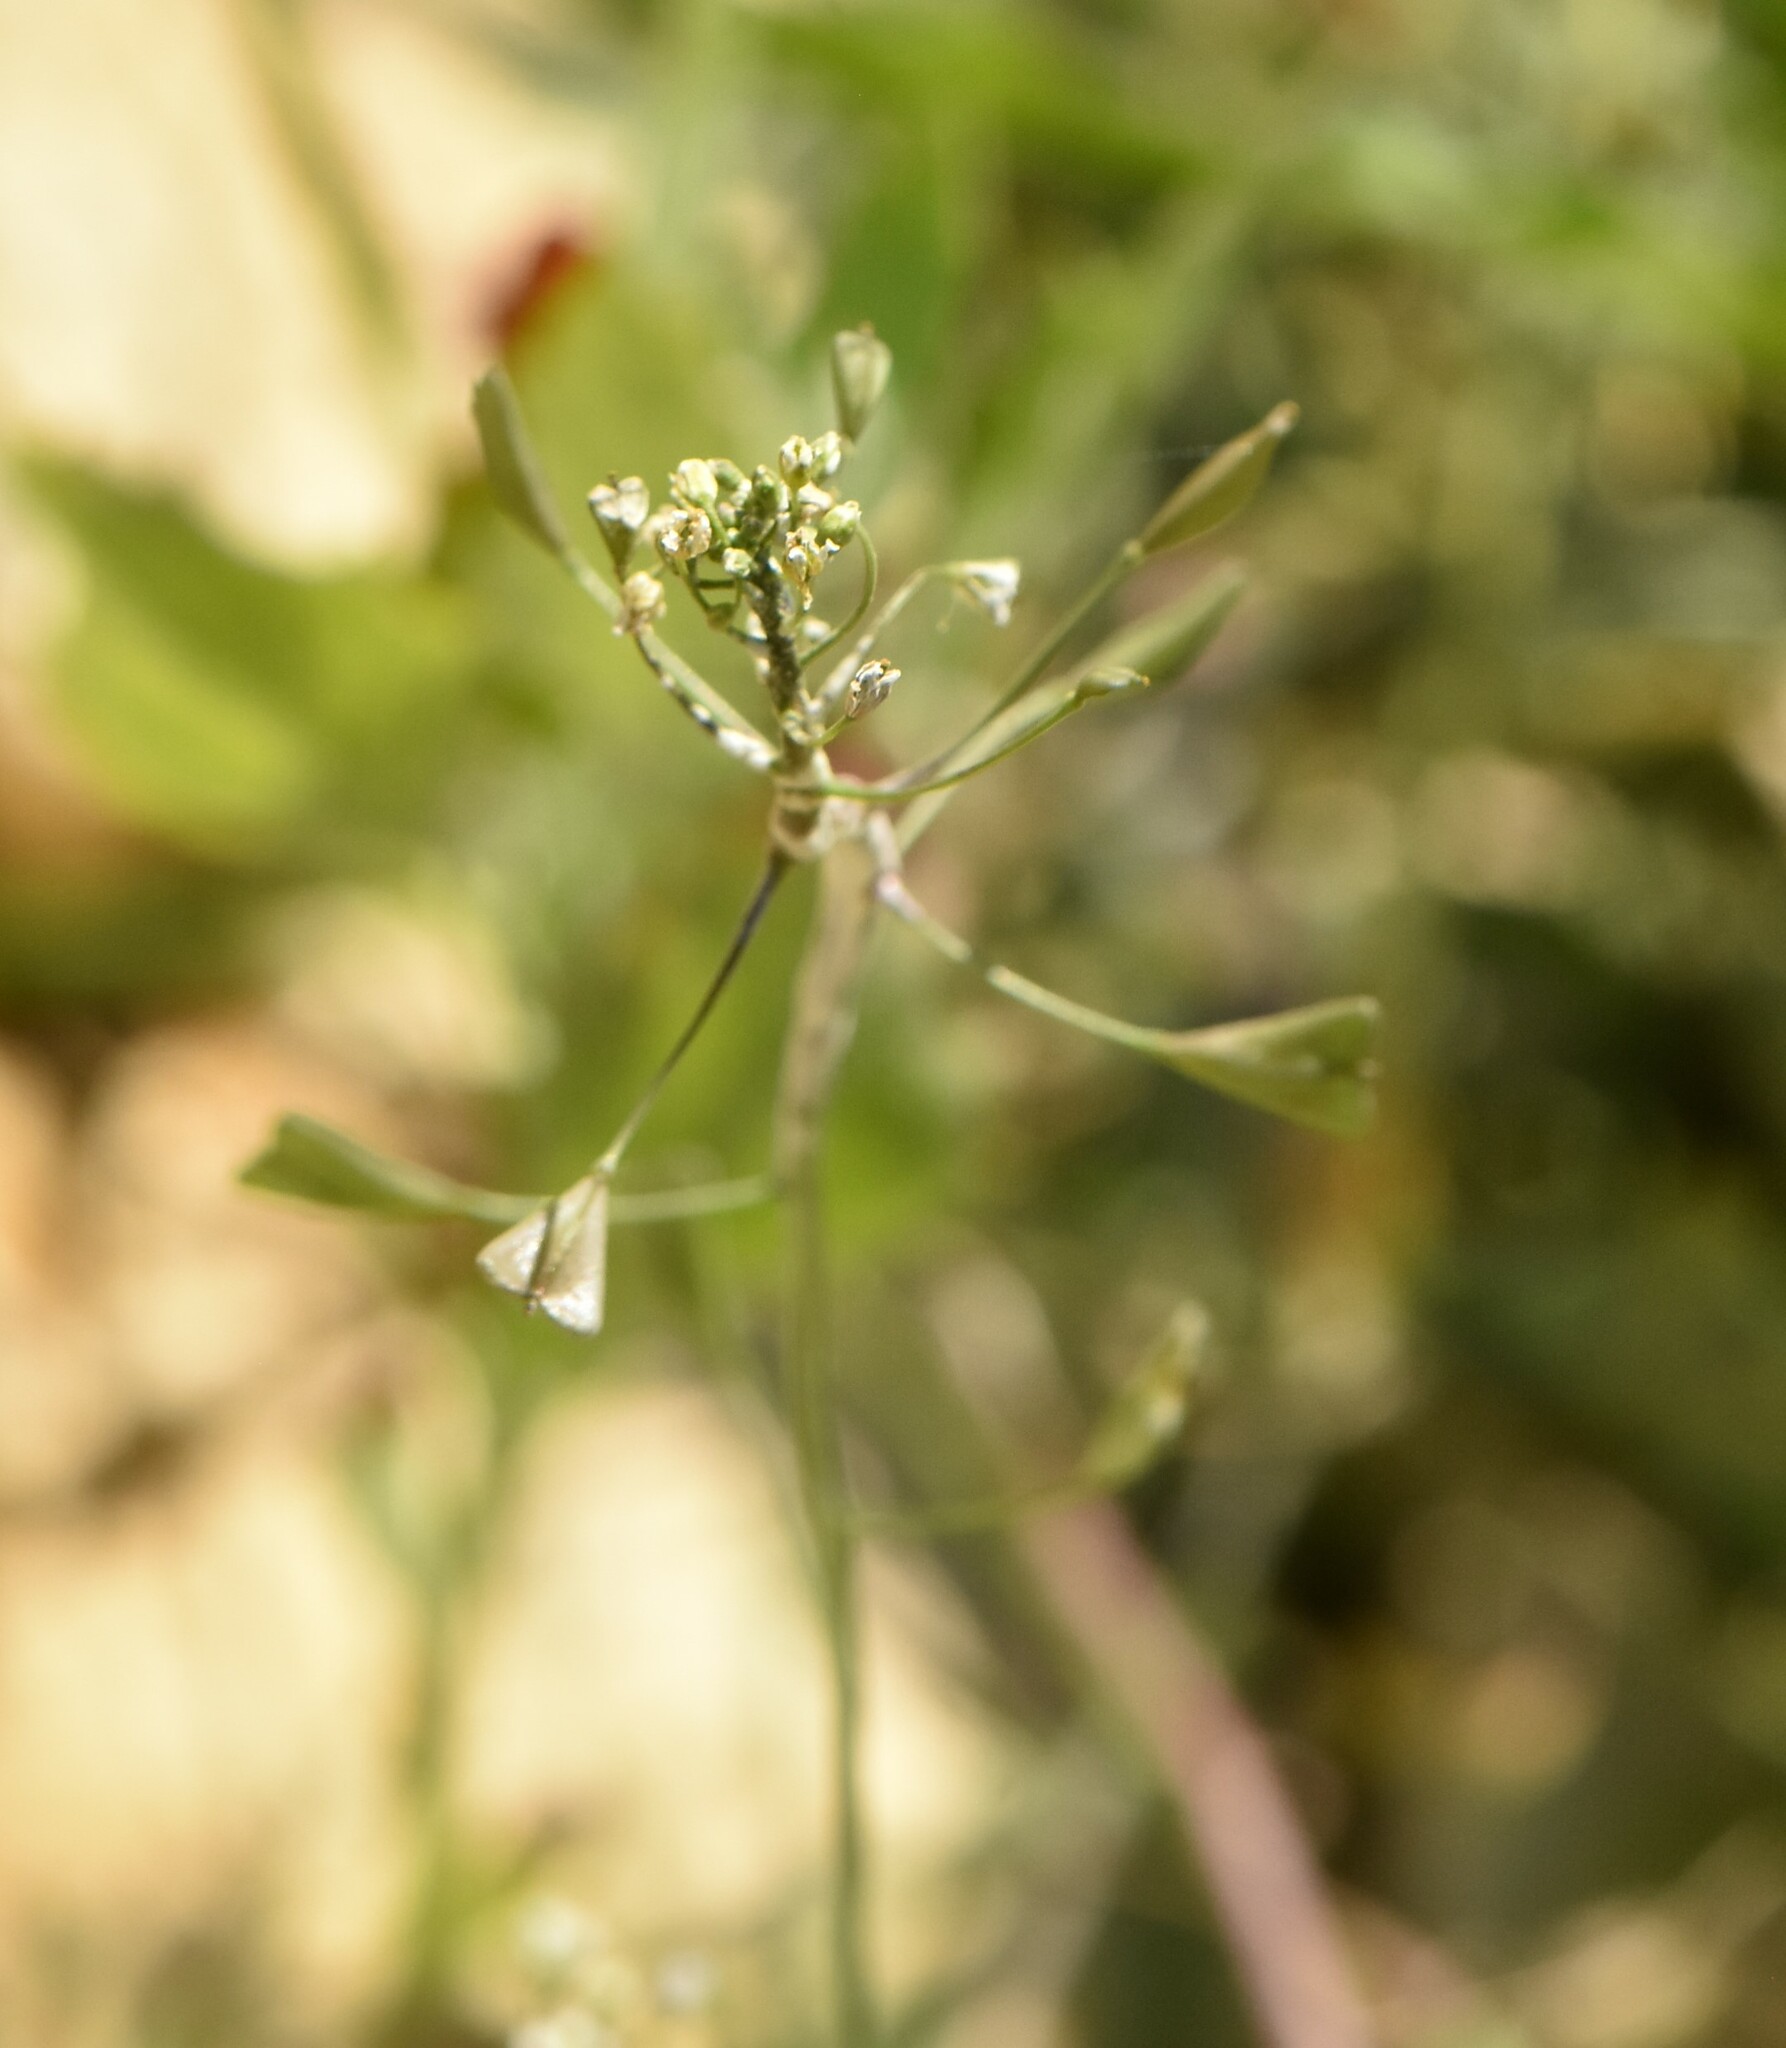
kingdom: Plantae
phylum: Tracheophyta
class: Magnoliopsida
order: Brassicales
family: Brassicaceae
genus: Capsella
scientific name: Capsella bursa-pastoris
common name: Shepherd's purse
